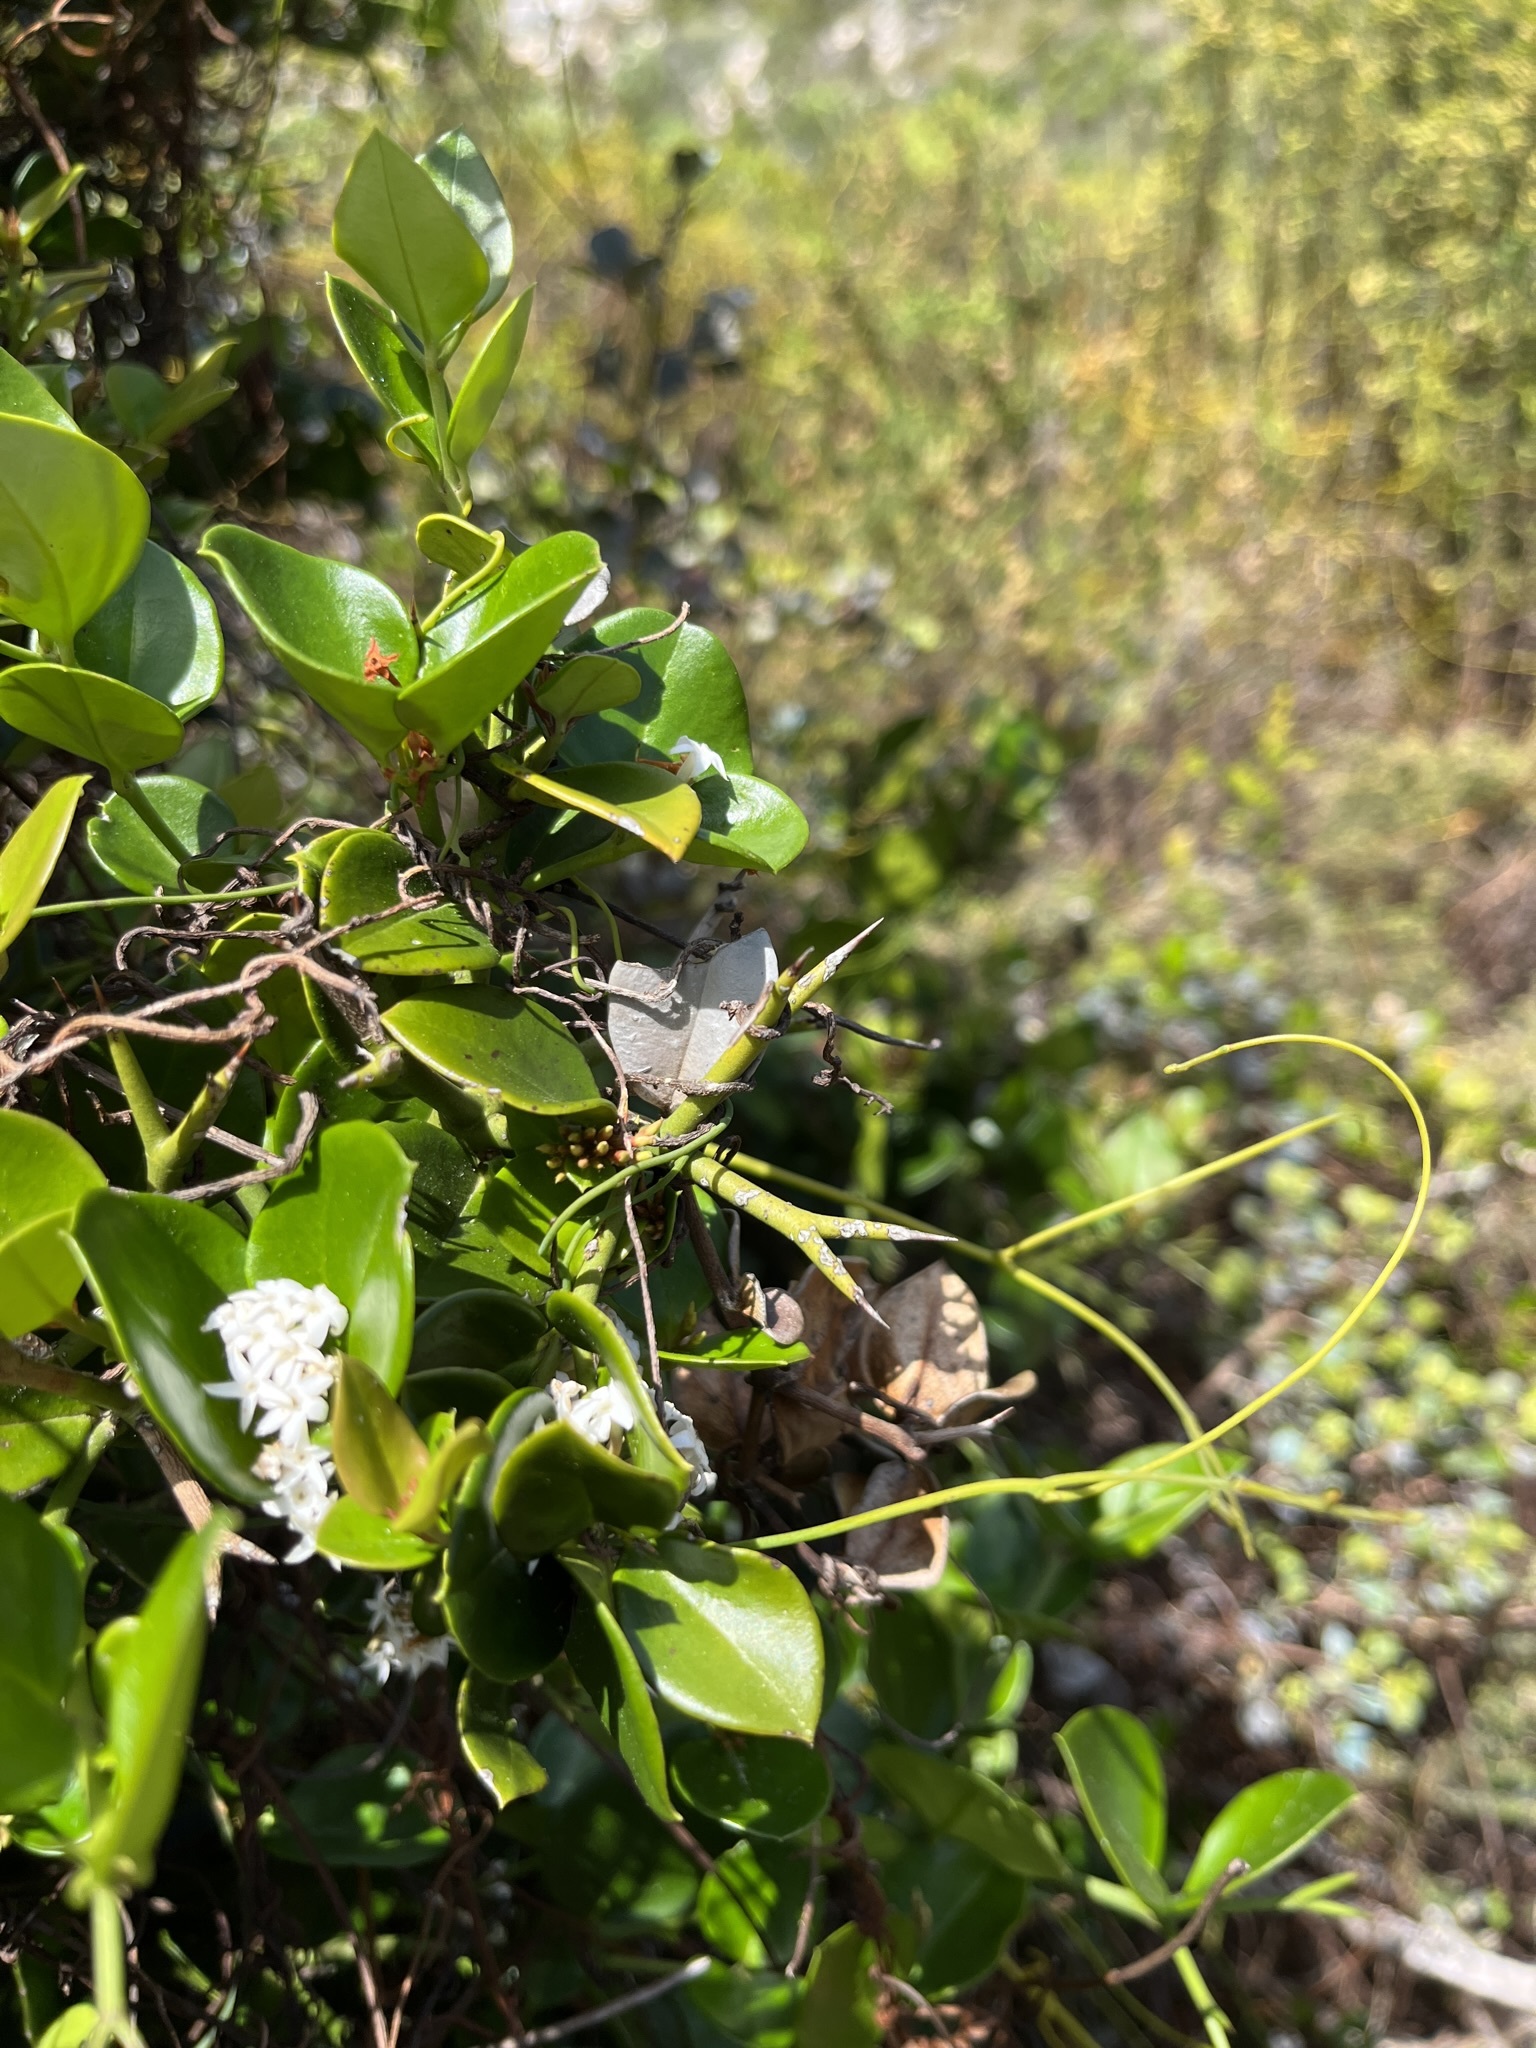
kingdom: Plantae
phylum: Tracheophyta
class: Magnoliopsida
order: Gentianales
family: Apocynaceae
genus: Carissa
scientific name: Carissa bispinosa
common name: Forest num-num
